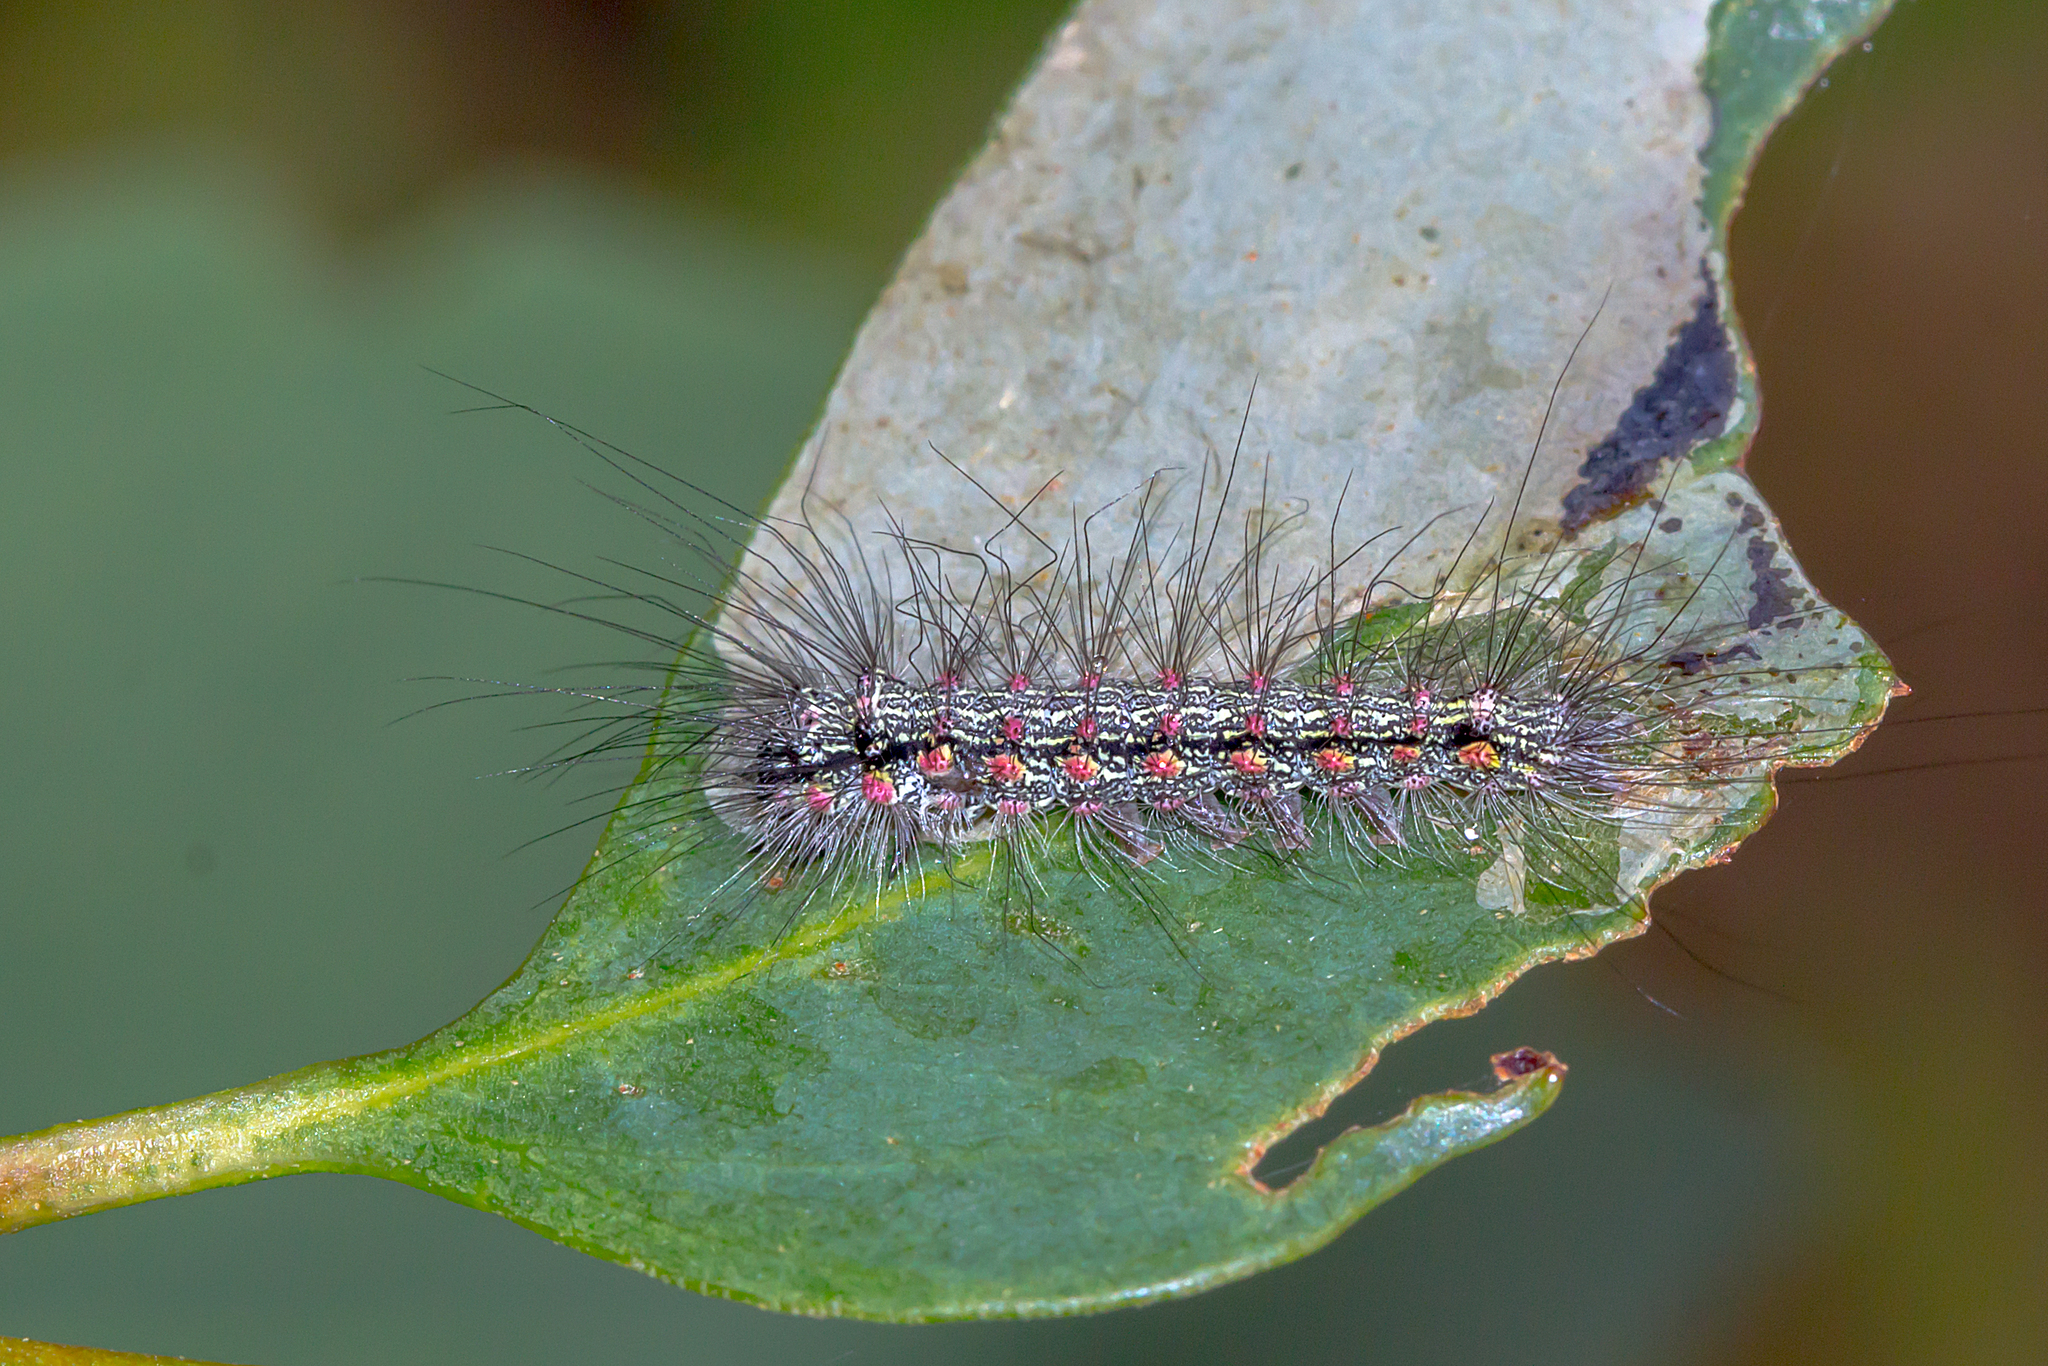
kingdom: Animalia
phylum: Arthropoda
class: Insecta
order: Lepidoptera
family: Erebidae
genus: Anestia
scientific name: Anestia
